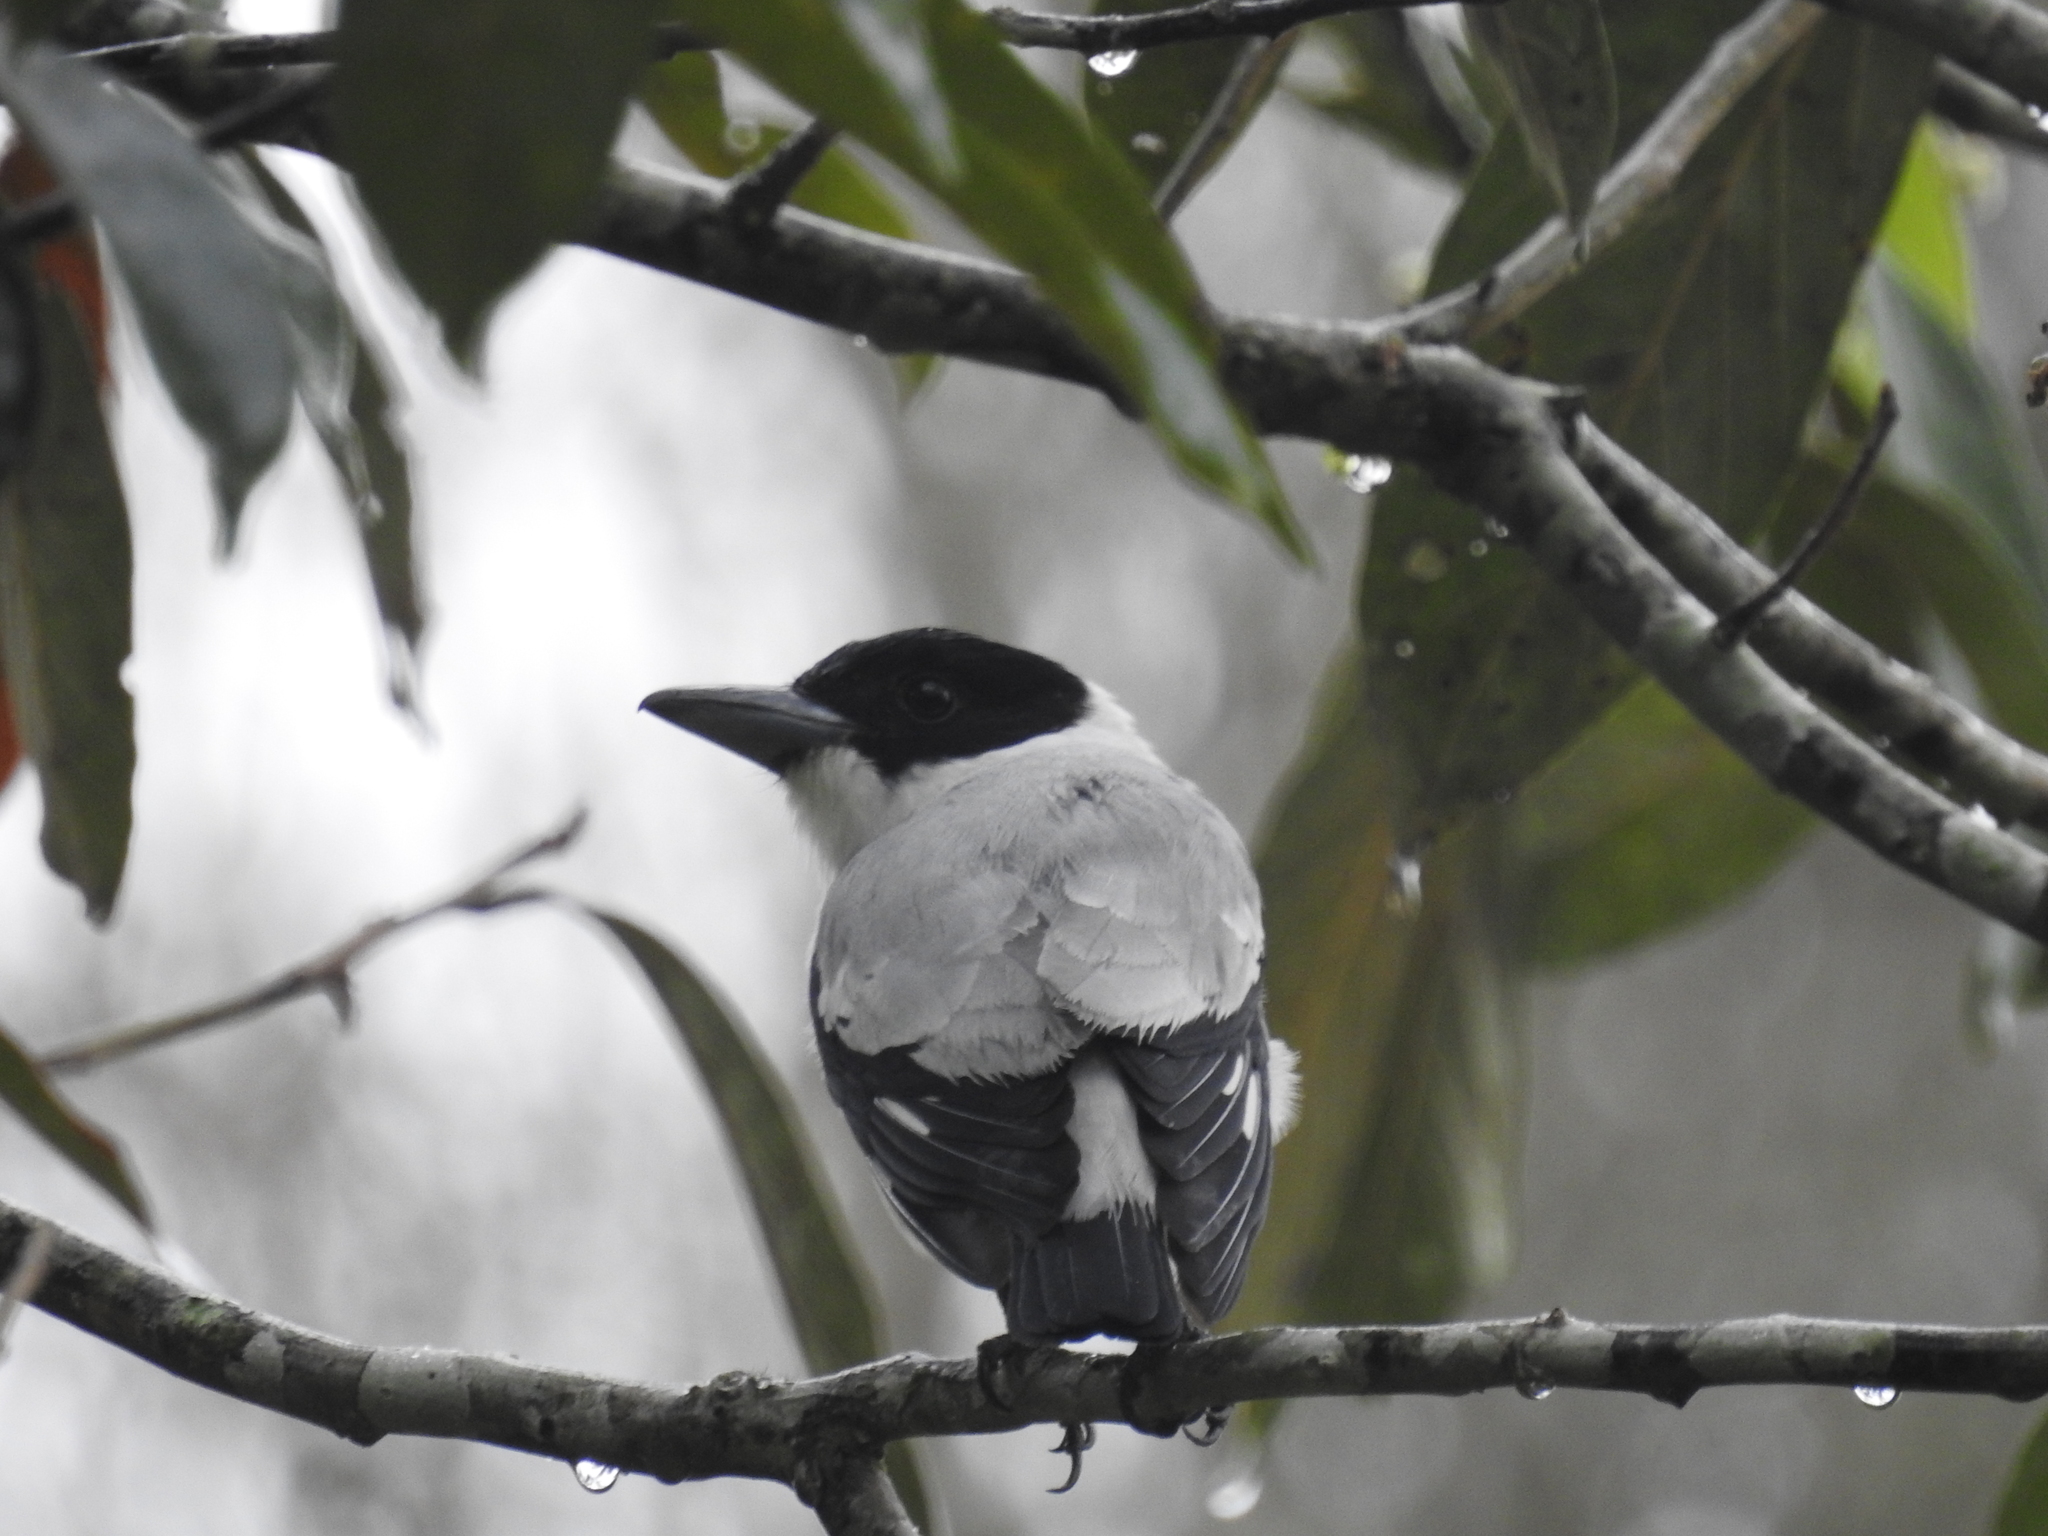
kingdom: Animalia
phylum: Chordata
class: Aves
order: Passeriformes
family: Cotingidae
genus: Tityra
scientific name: Tityra inquisitor
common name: Black-crowned tityra
